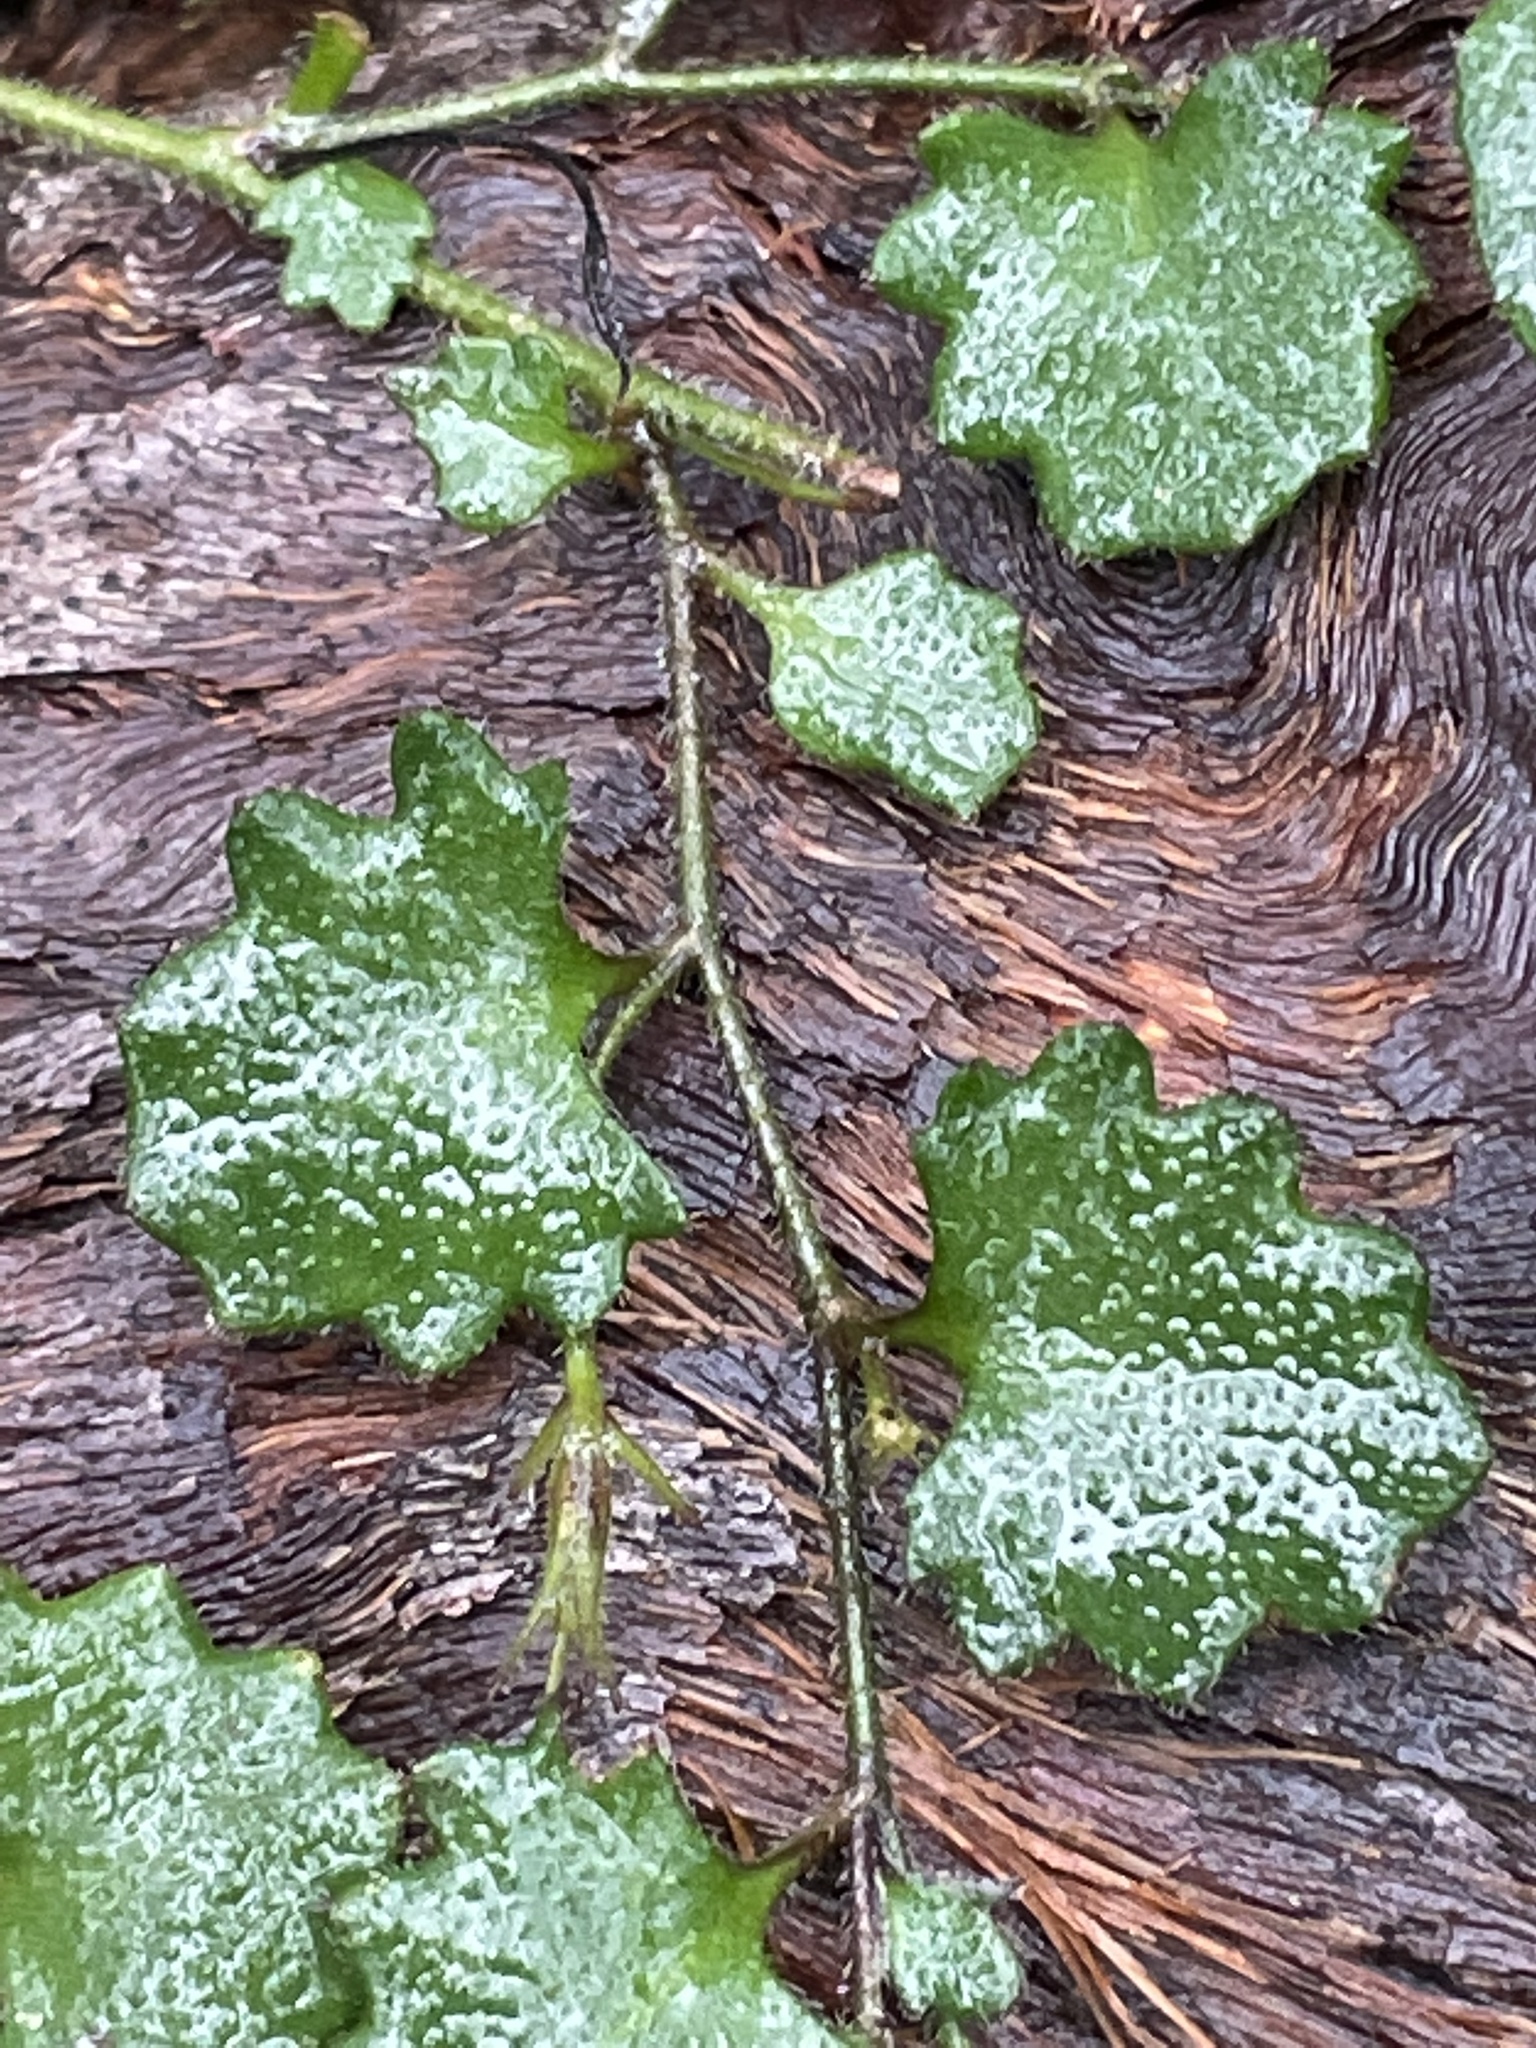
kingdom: Plantae
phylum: Tracheophyta
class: Magnoliopsida
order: Asterales
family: Goodeniaceae
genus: Goodenia
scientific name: Goodenia rotundifolia
